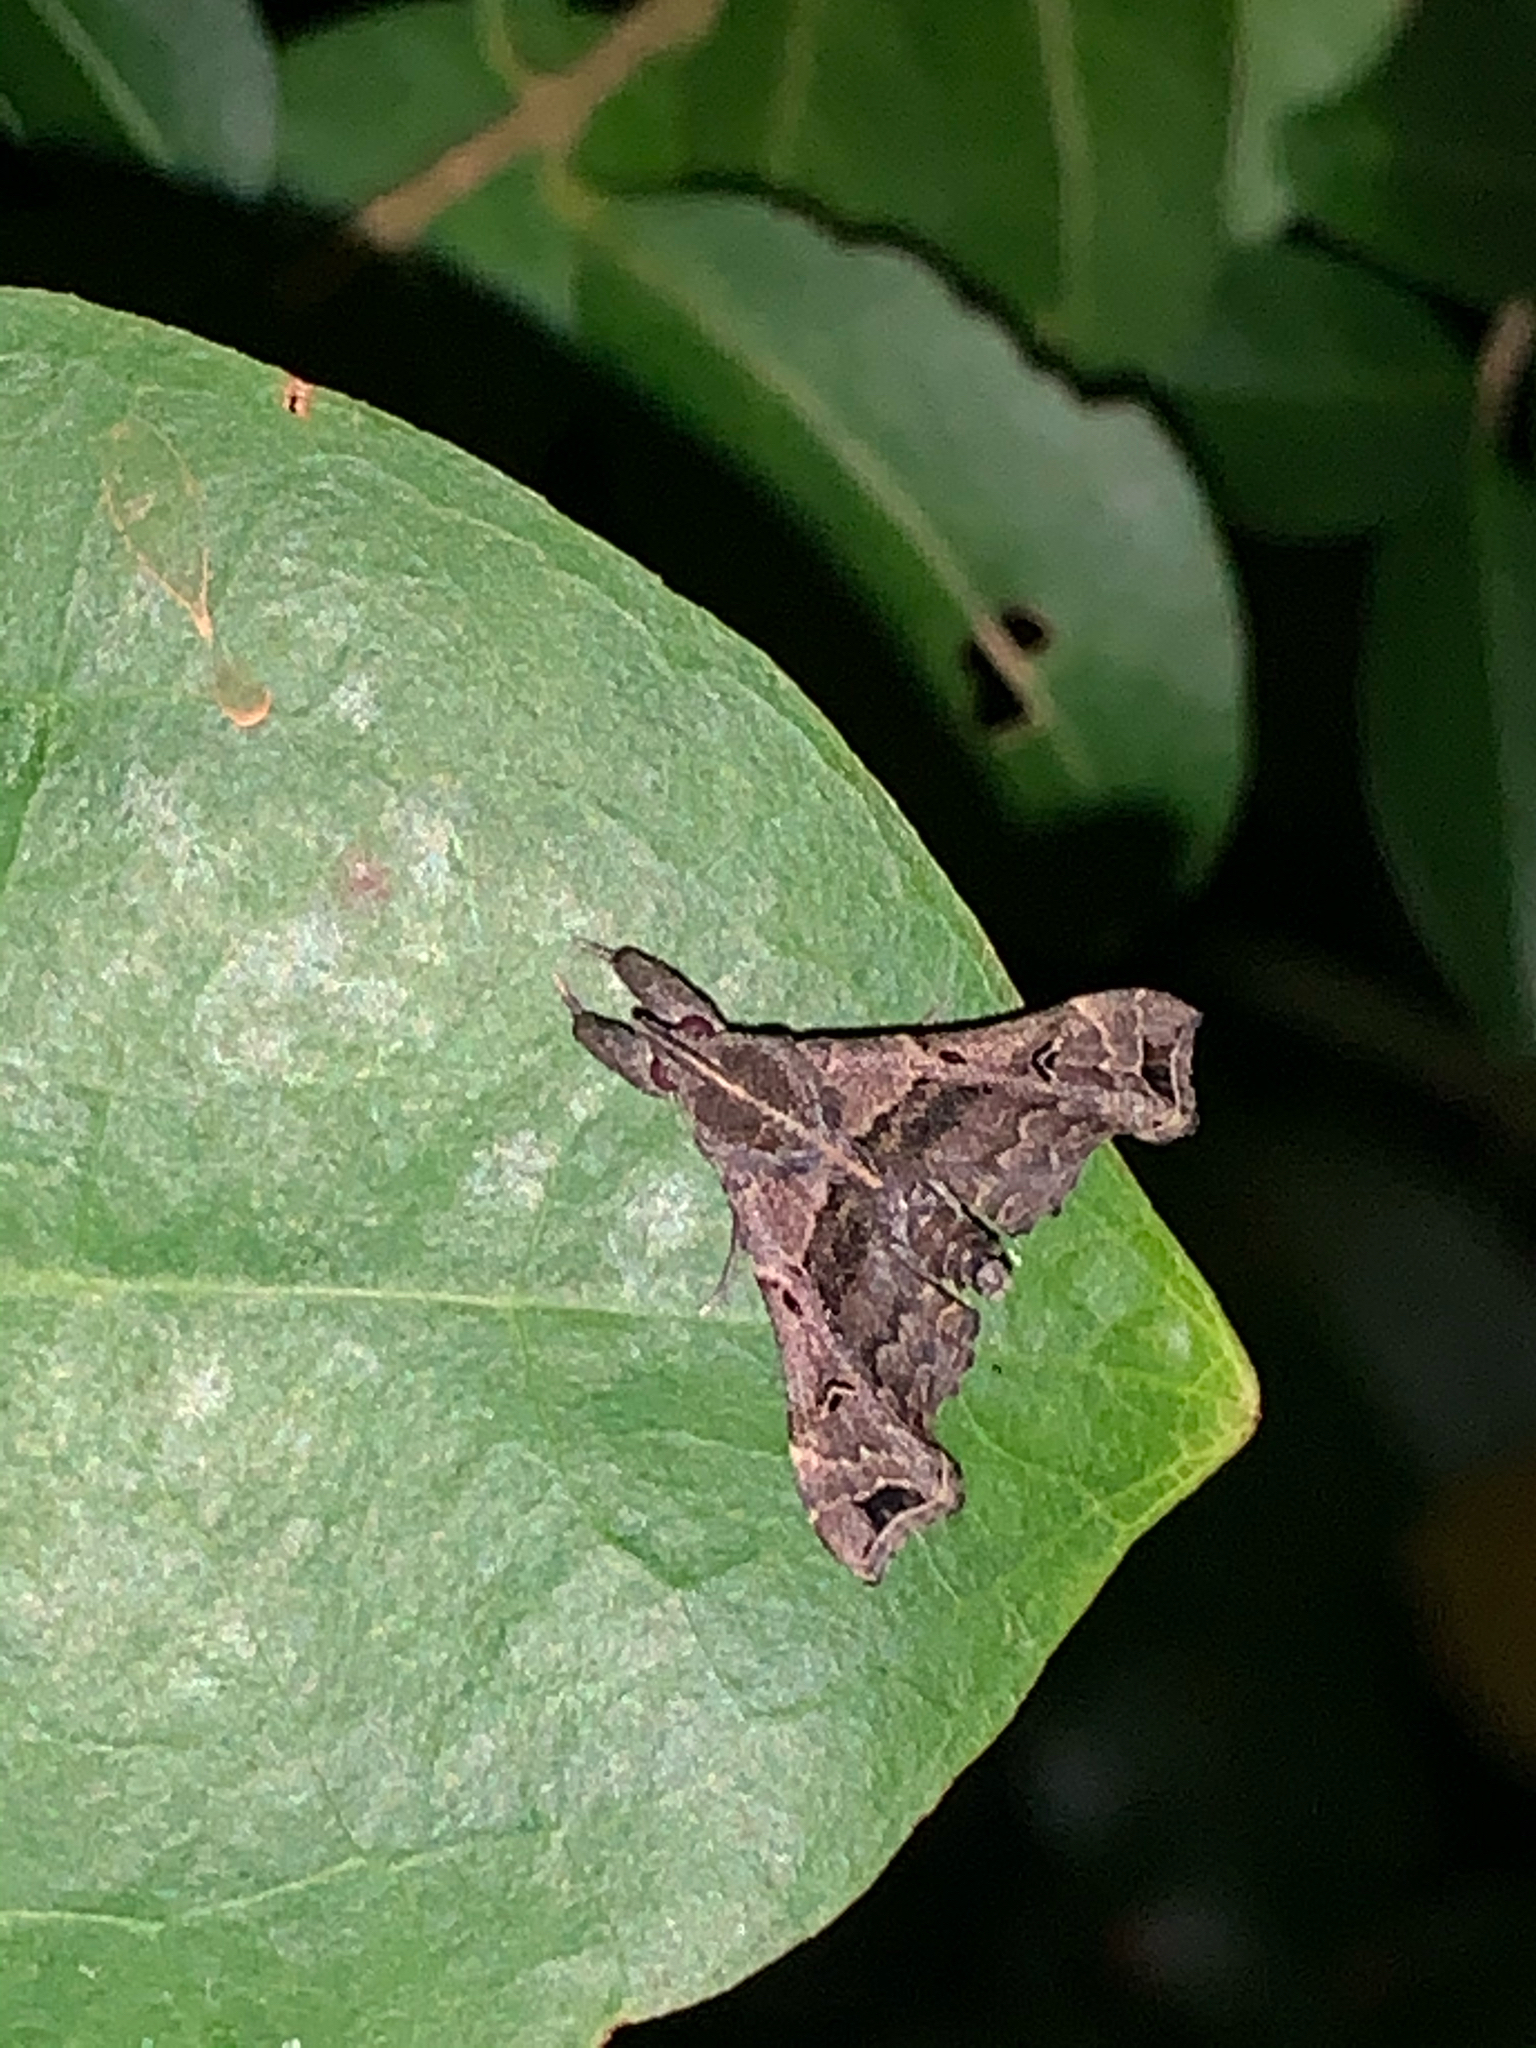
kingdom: Animalia
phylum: Arthropoda
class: Insecta
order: Lepidoptera
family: Erebidae
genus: Palthis
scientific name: Palthis asopialis
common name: Faint-spotted palthis moth
